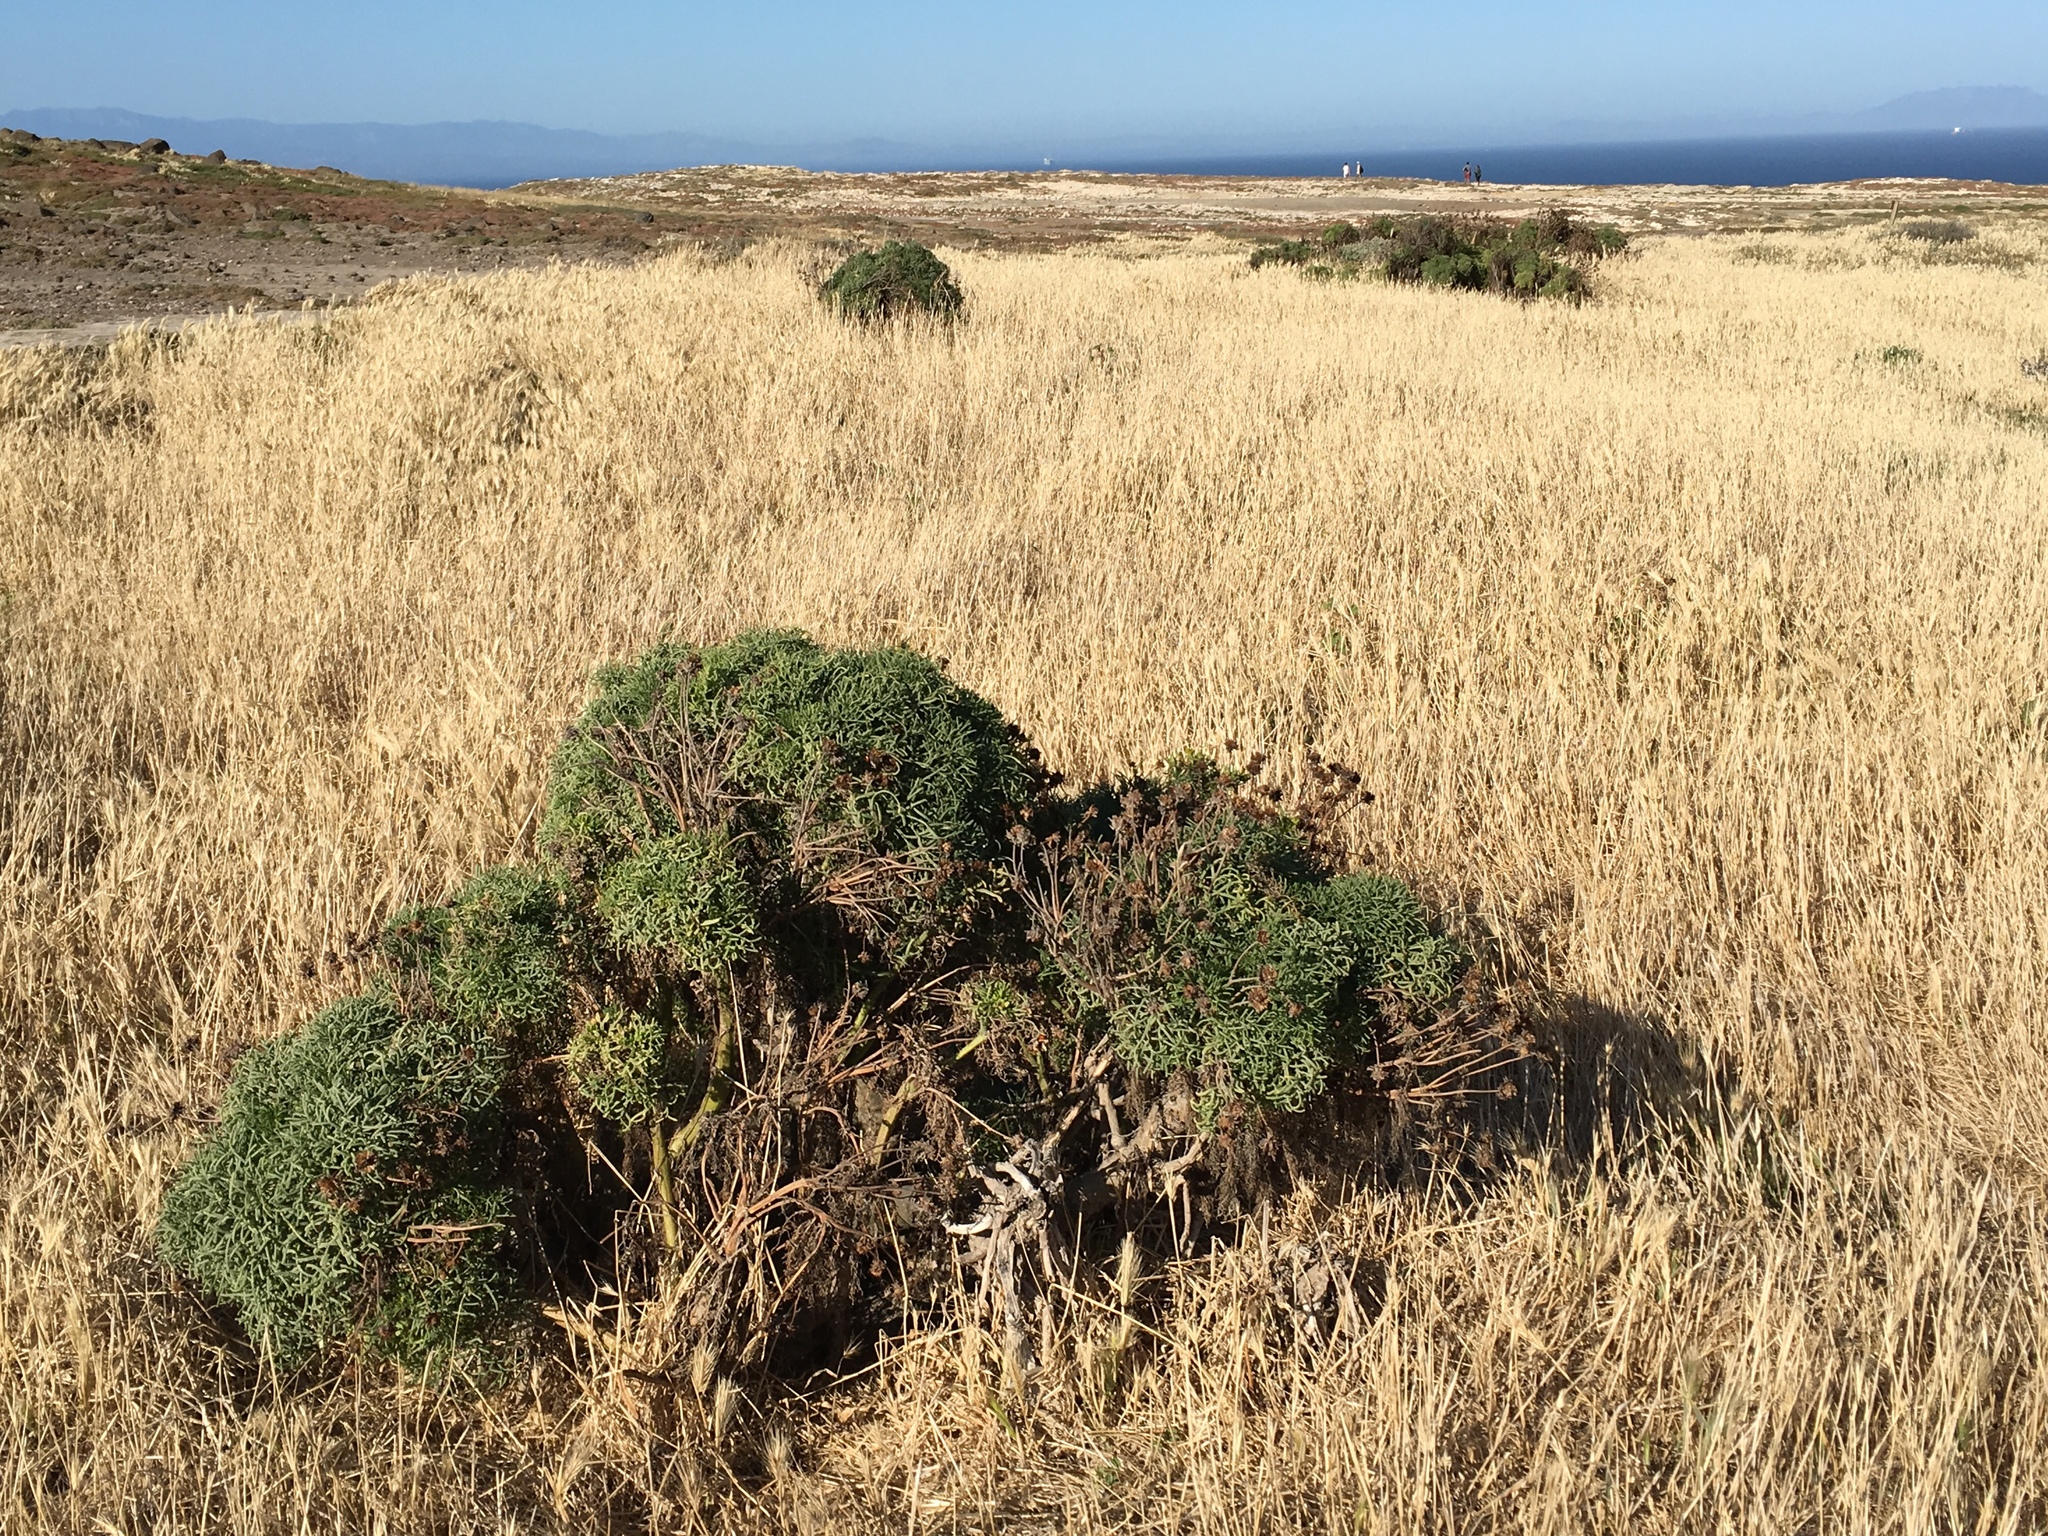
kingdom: Plantae
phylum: Tracheophyta
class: Magnoliopsida
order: Asterales
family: Asteraceae
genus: Coreopsis
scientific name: Coreopsis gigantea
